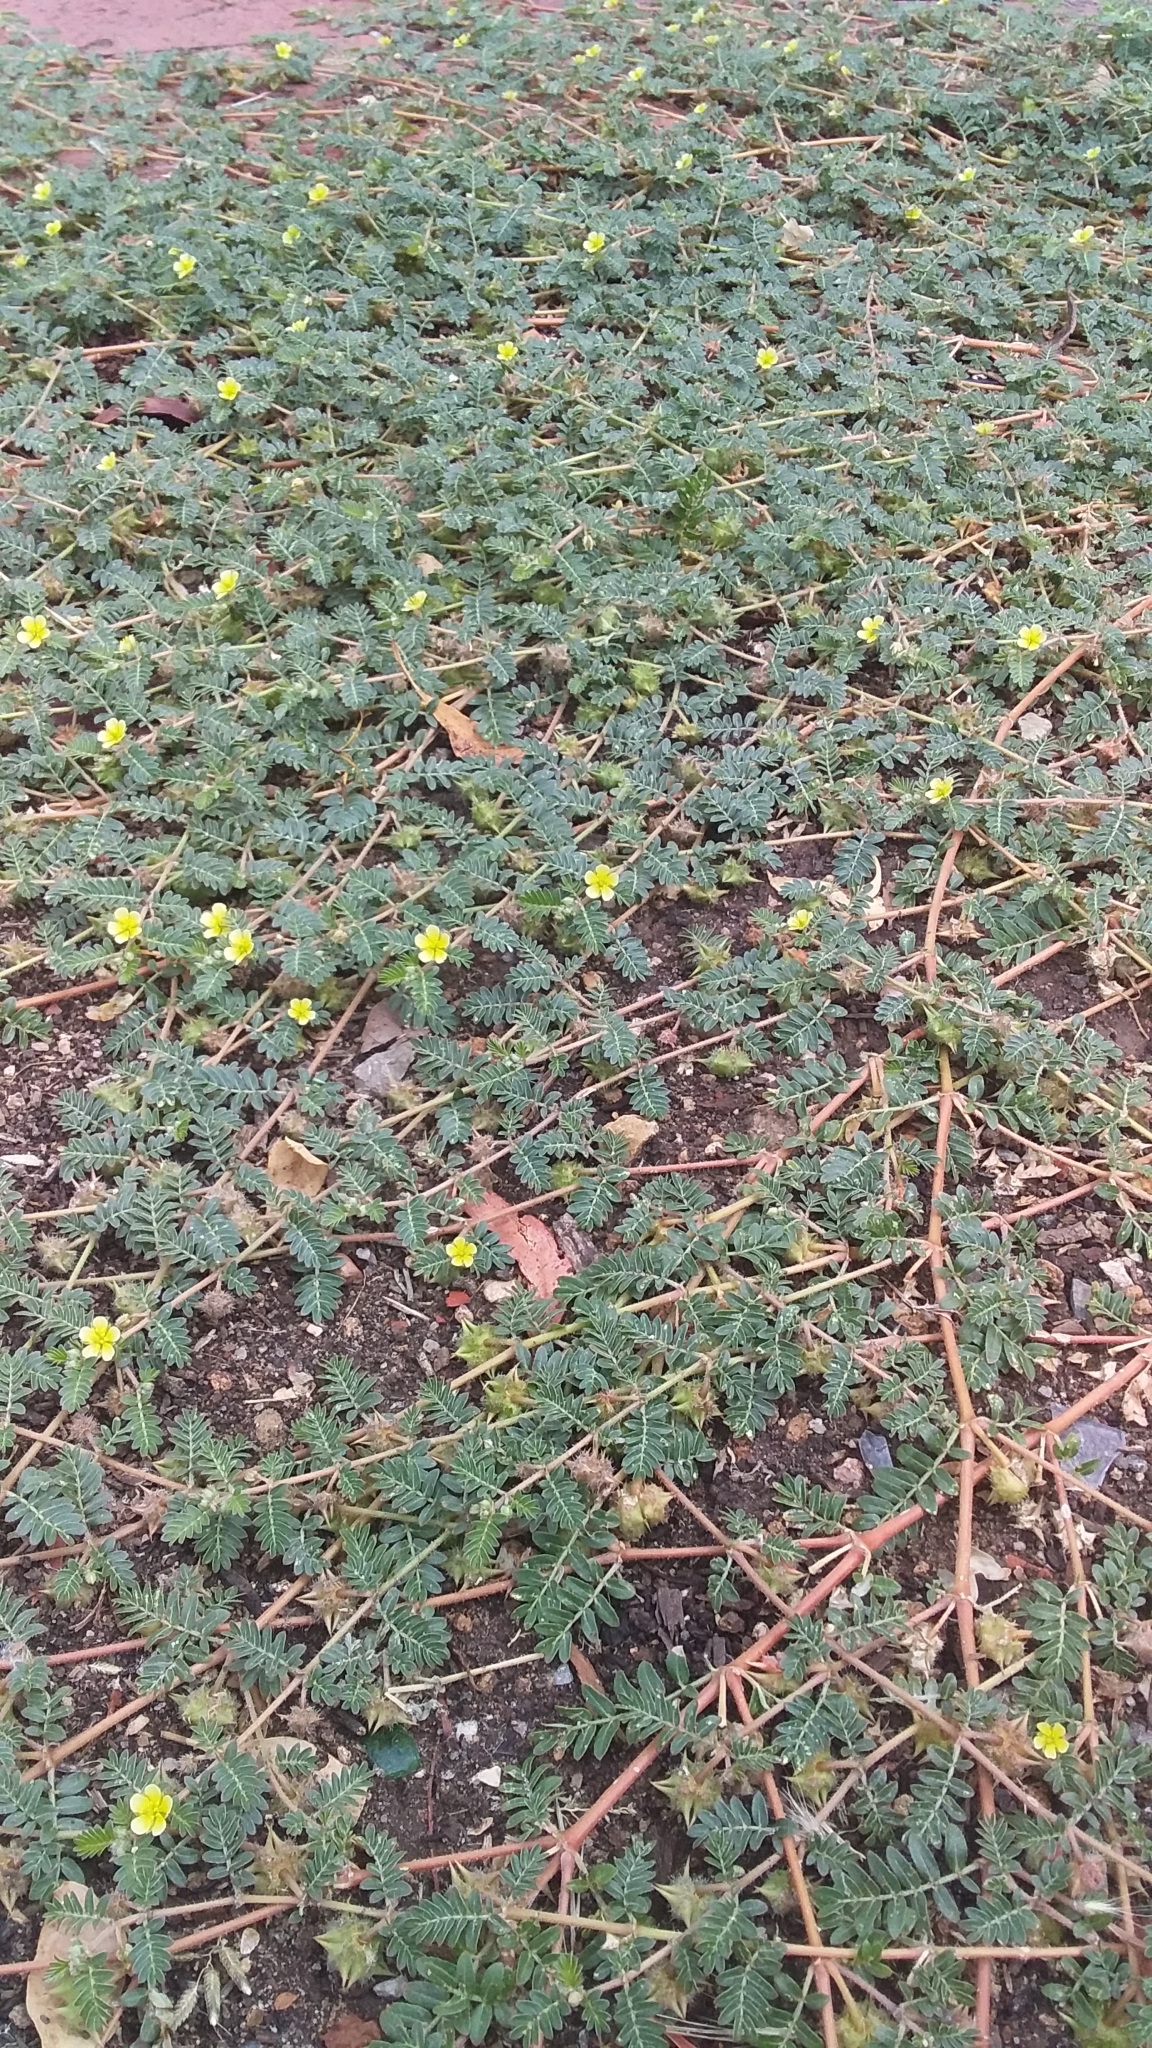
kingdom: Plantae
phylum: Tracheophyta
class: Magnoliopsida
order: Zygophyllales
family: Zygophyllaceae
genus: Tribulus
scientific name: Tribulus terrestris
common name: Puncturevine
